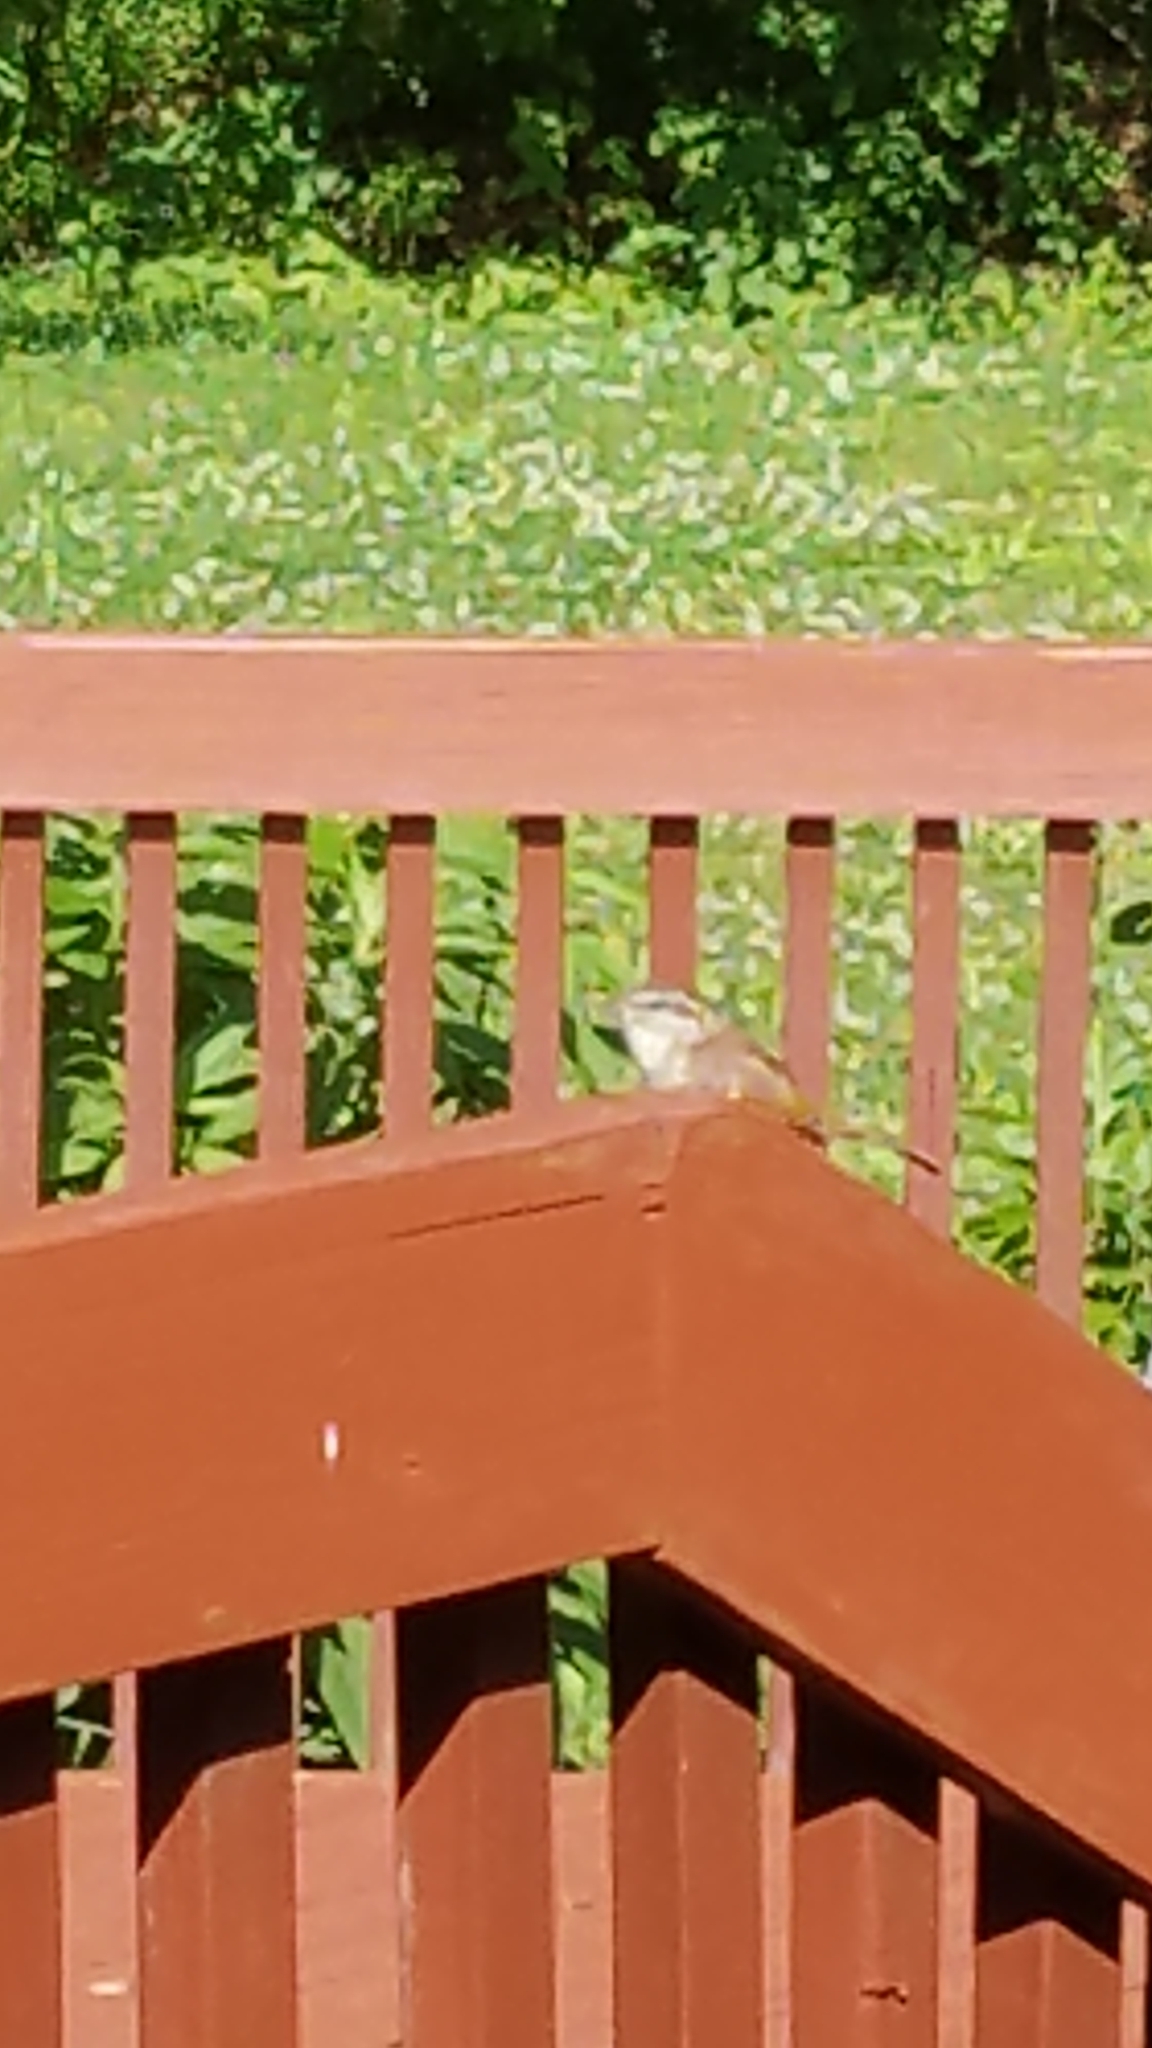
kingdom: Animalia
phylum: Chordata
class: Aves
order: Passeriformes
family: Troglodytidae
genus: Thryothorus
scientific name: Thryothorus ludovicianus
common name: Carolina wren
